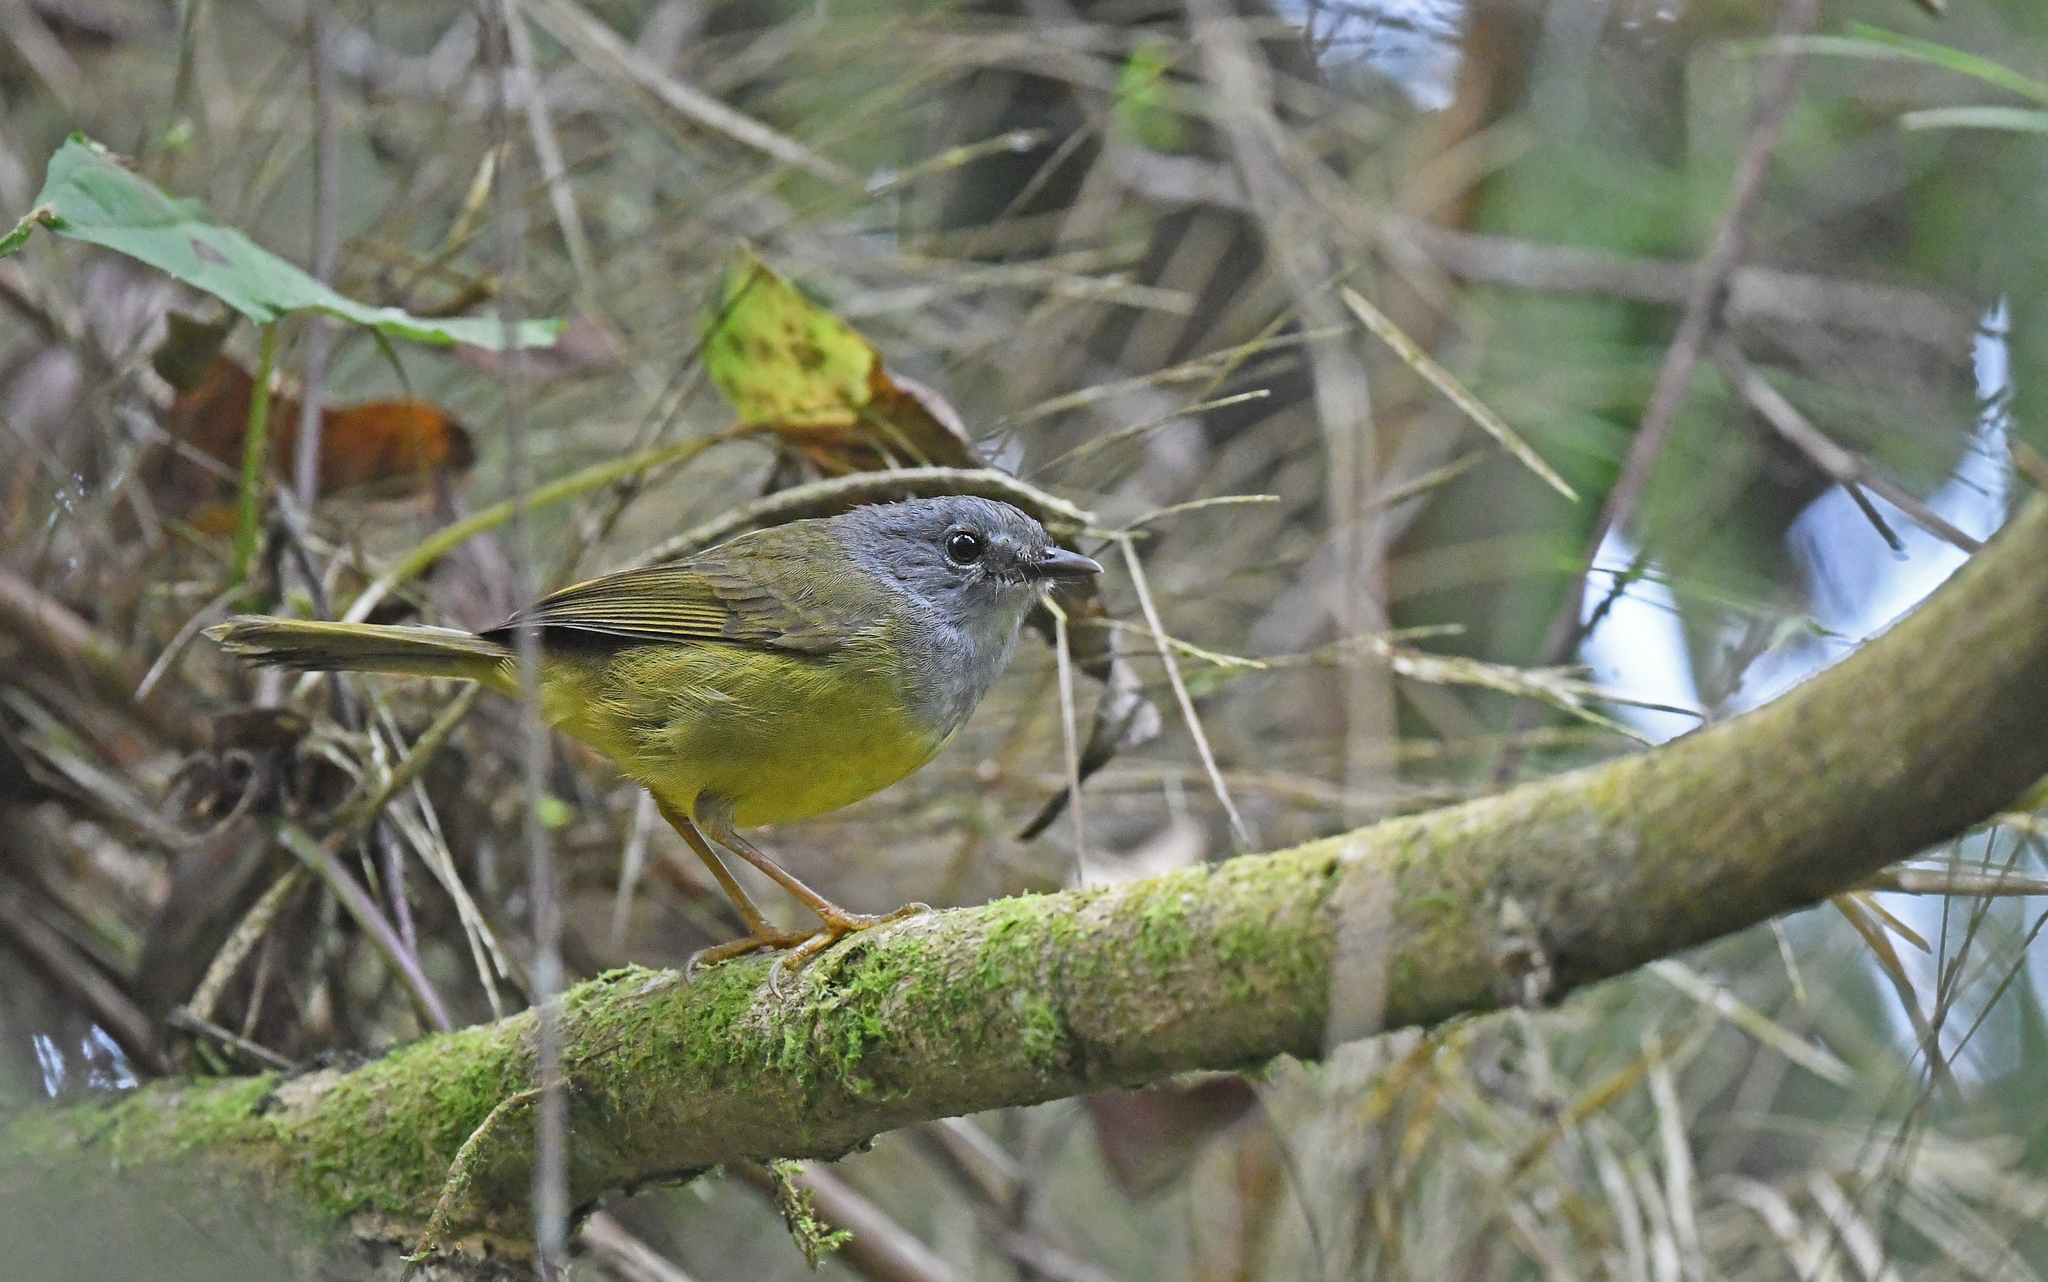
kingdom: Animalia
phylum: Chordata
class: Aves
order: Passeriformes
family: Parulidae
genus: Myiothlypis
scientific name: Myiothlypis cinereicollis
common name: Grey-throated warbler
